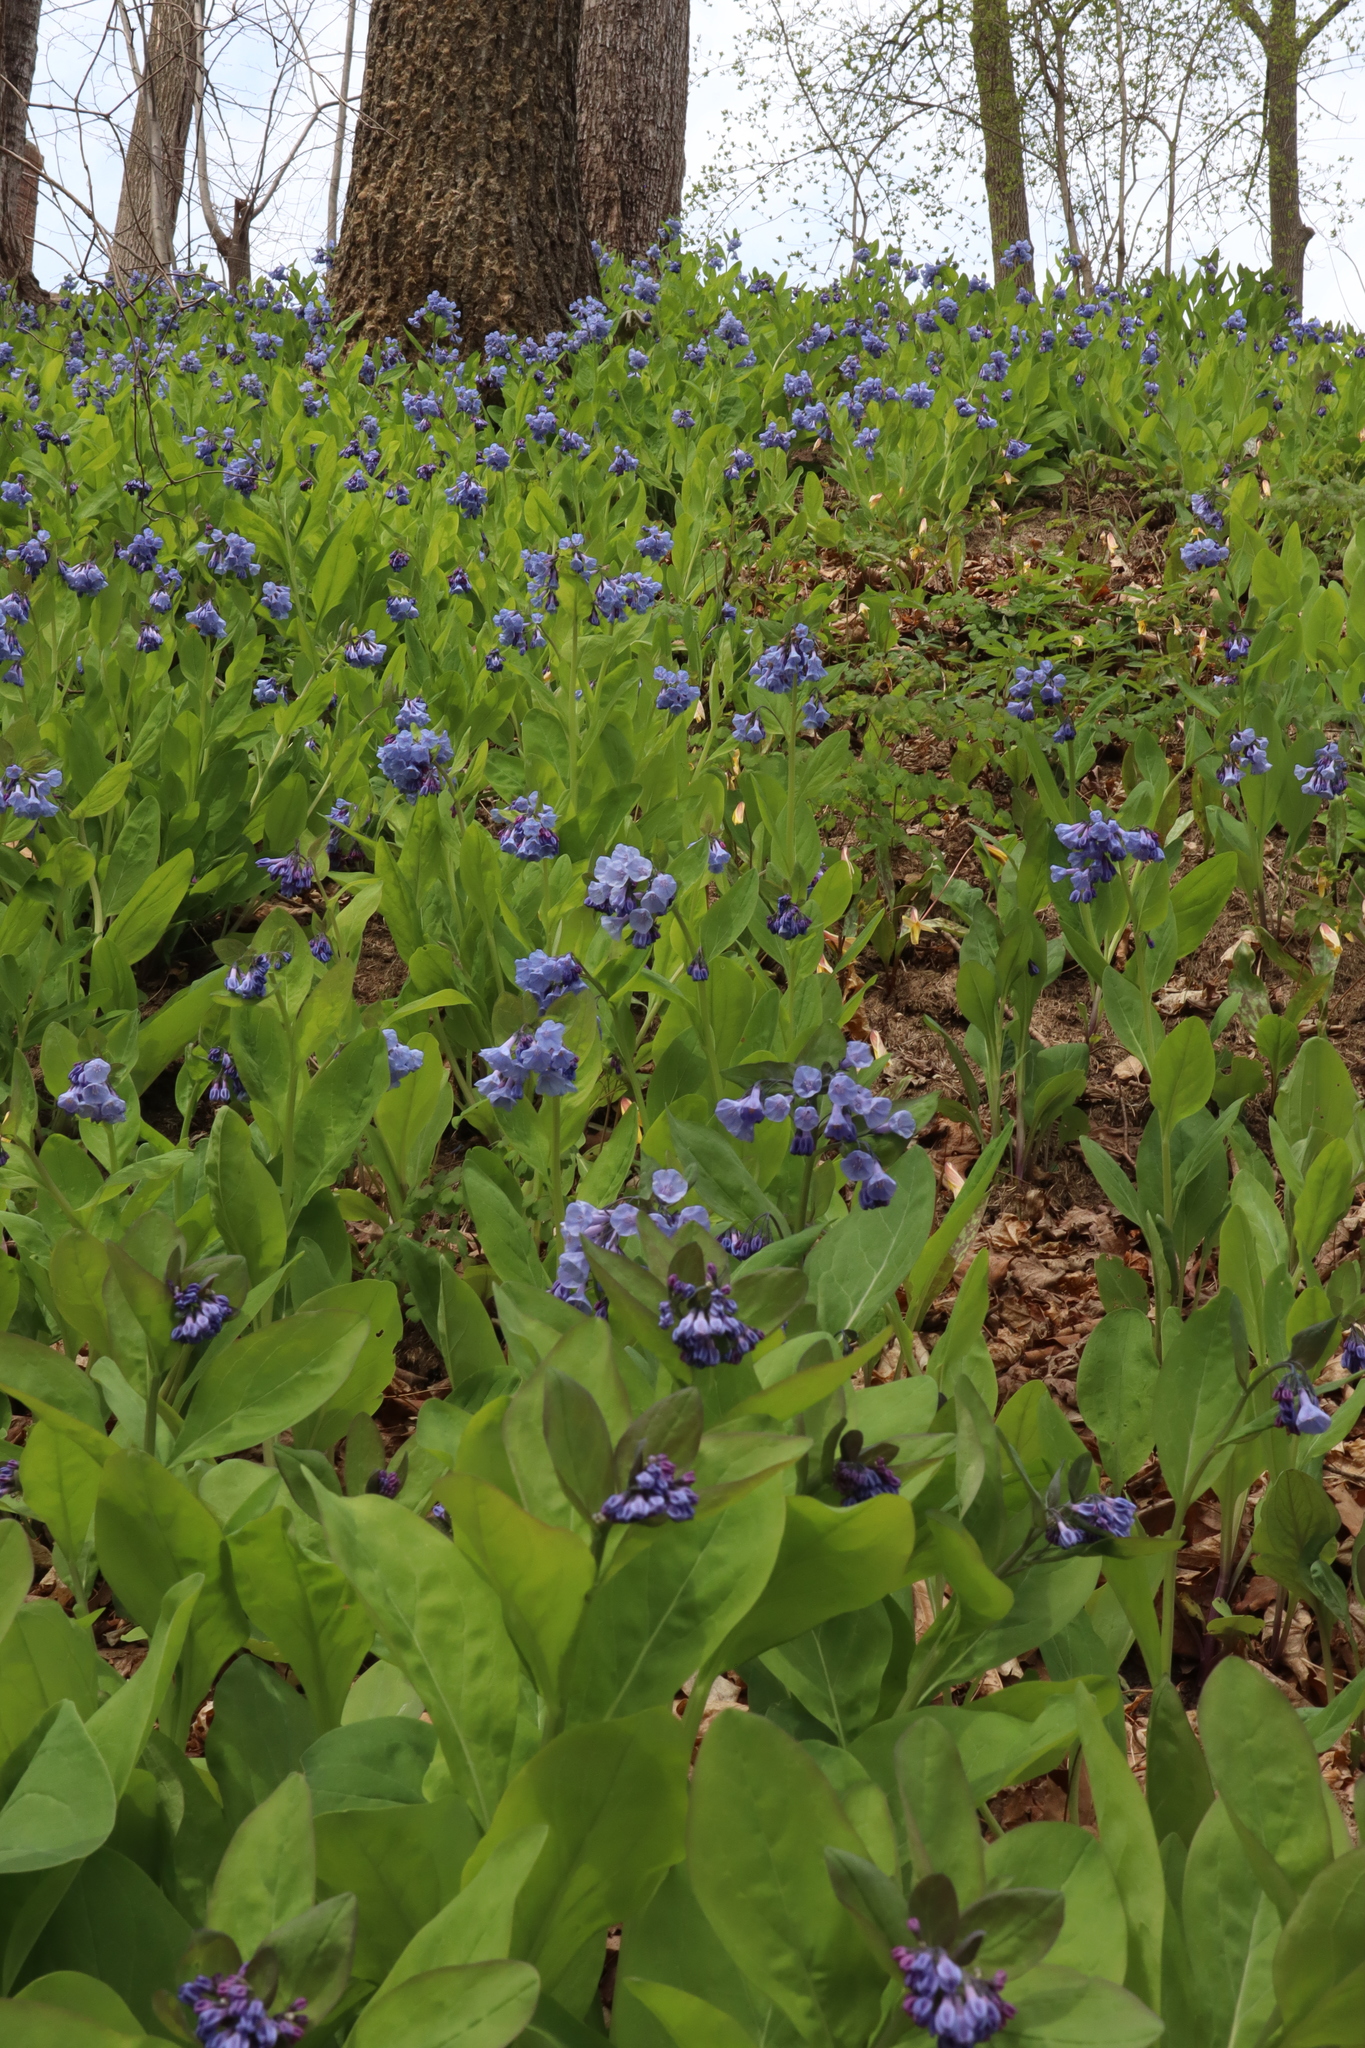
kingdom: Plantae
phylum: Tracheophyta
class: Magnoliopsida
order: Boraginales
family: Boraginaceae
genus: Mertensia
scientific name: Mertensia virginica
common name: Virginia bluebells
